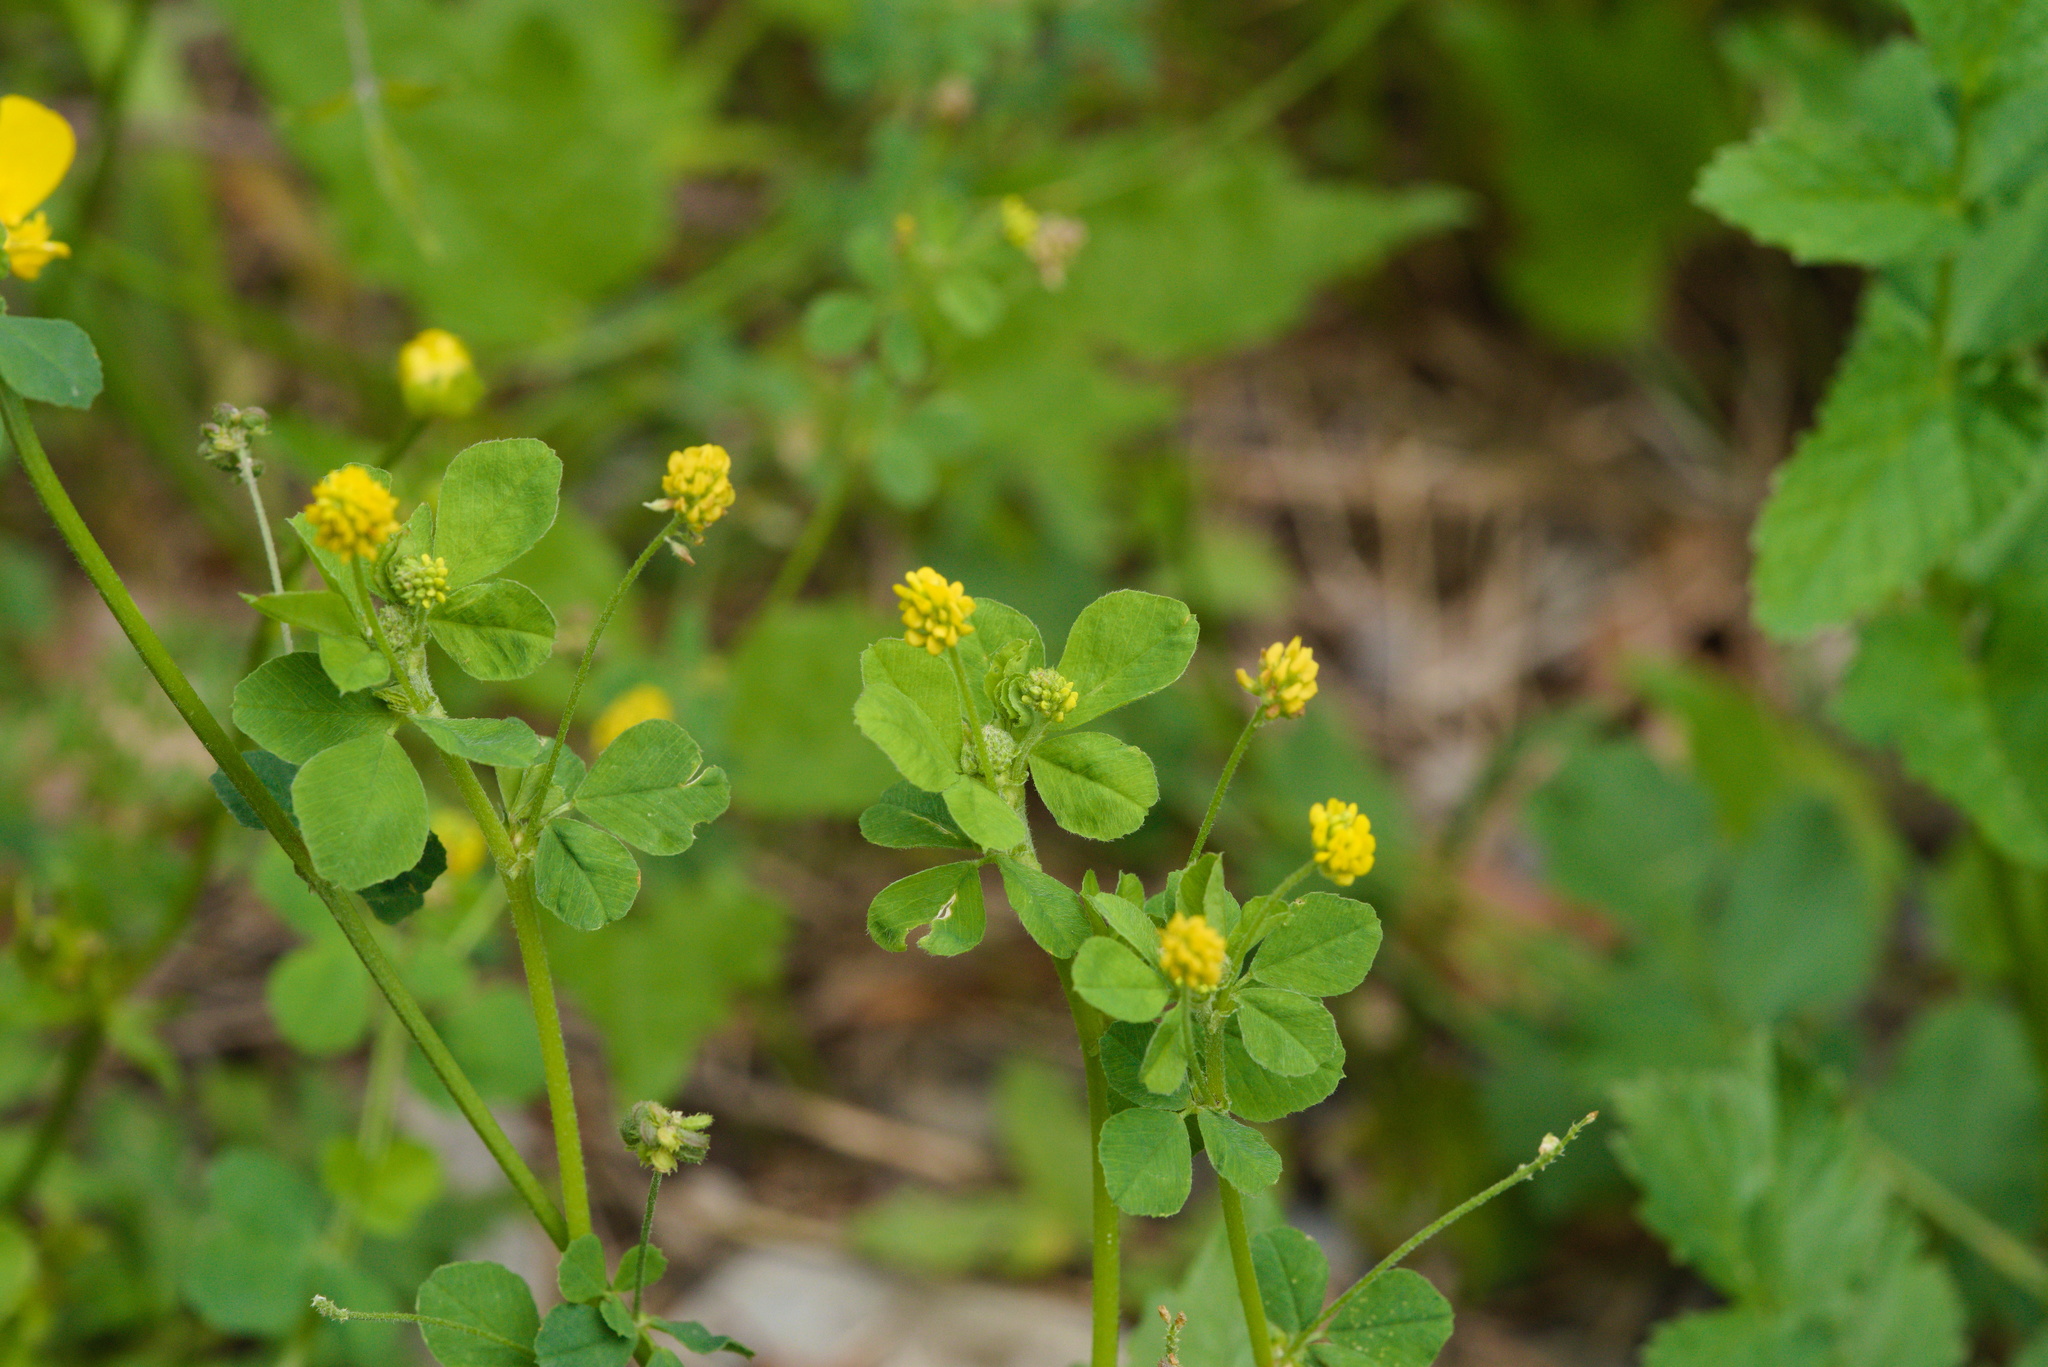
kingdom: Plantae
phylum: Tracheophyta
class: Magnoliopsida
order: Fabales
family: Fabaceae
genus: Medicago
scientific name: Medicago lupulina
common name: Black medick
